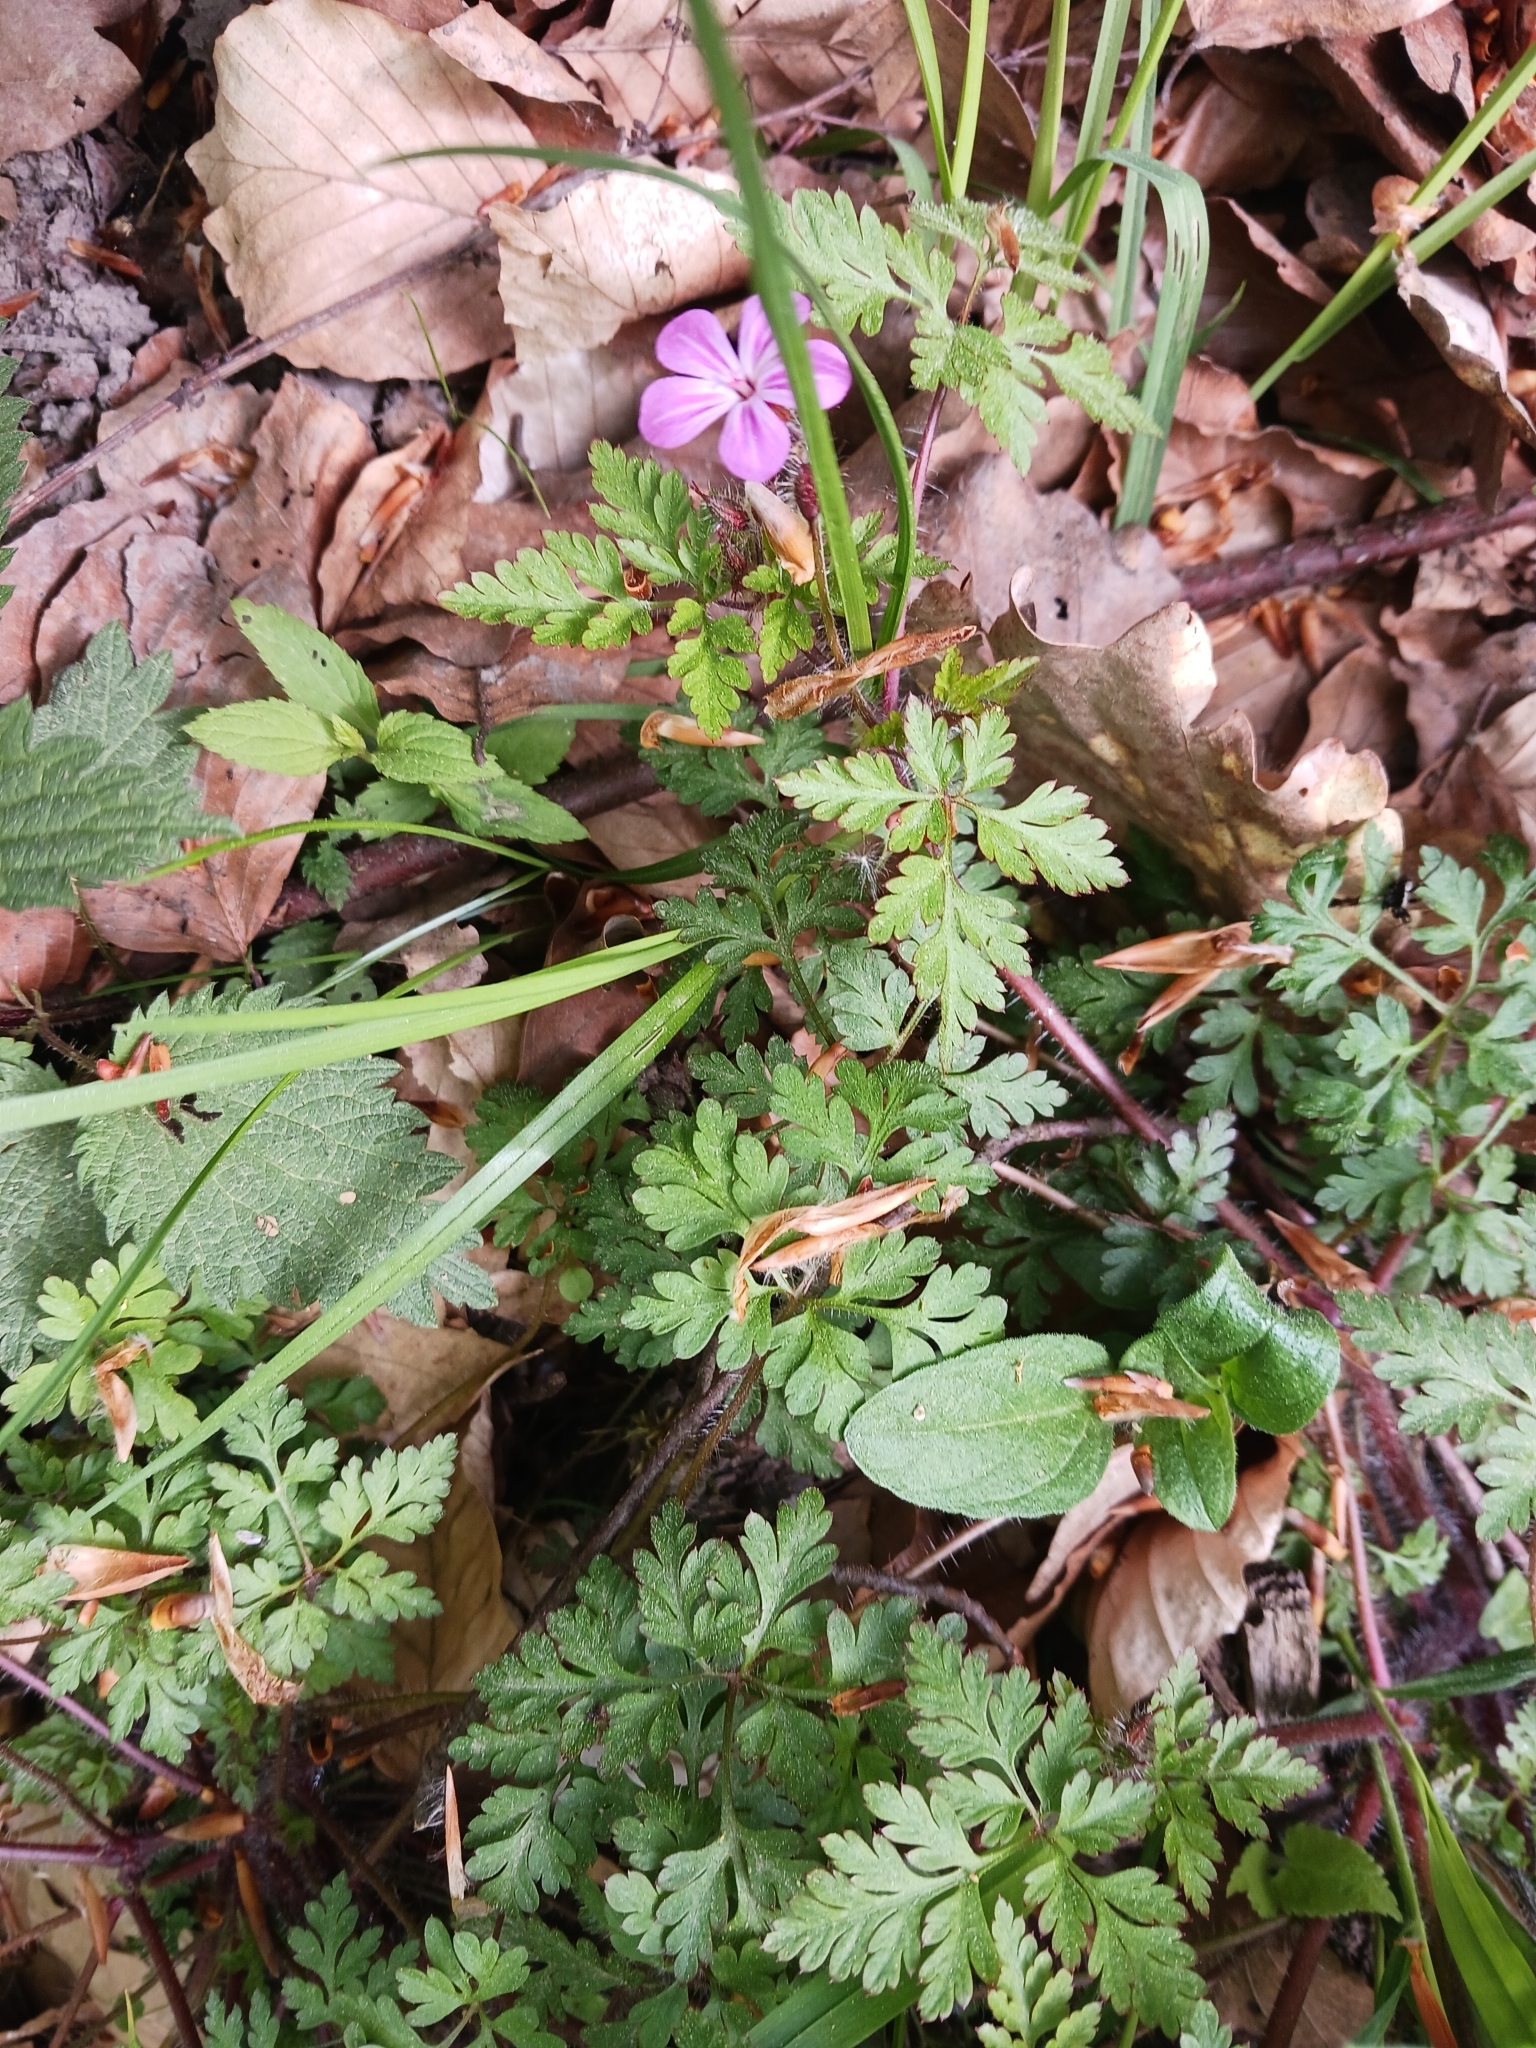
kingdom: Plantae
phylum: Tracheophyta
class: Magnoliopsida
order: Geraniales
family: Geraniaceae
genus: Geranium
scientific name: Geranium robertianum
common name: Herb-robert
